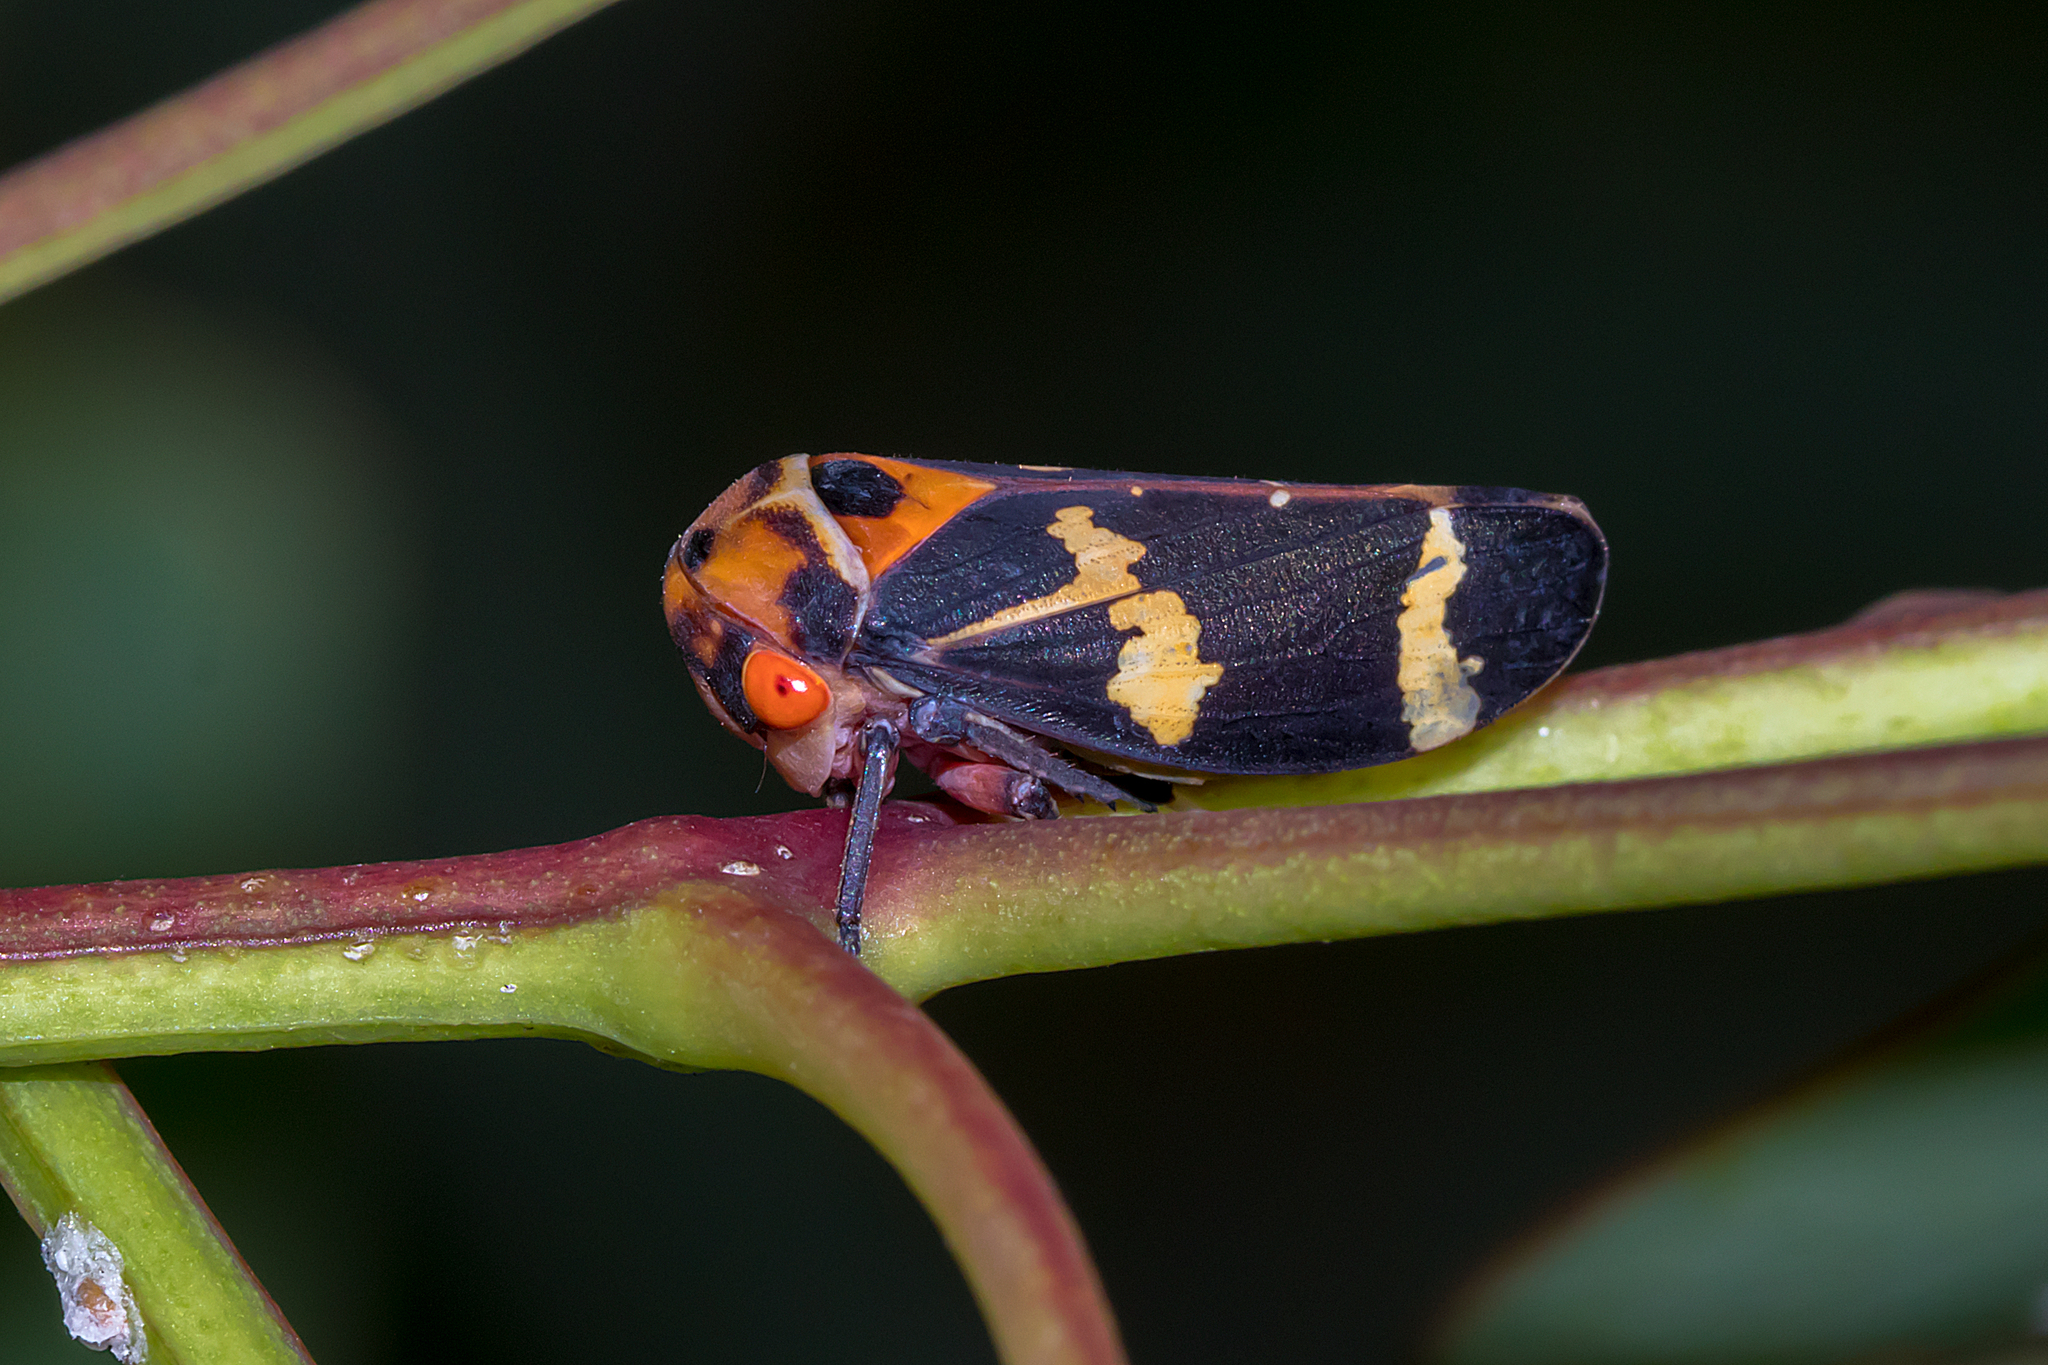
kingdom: Animalia
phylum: Arthropoda
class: Insecta
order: Hemiptera
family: Cicadellidae
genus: Eurymeloides
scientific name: Eurymeloides pulchra
